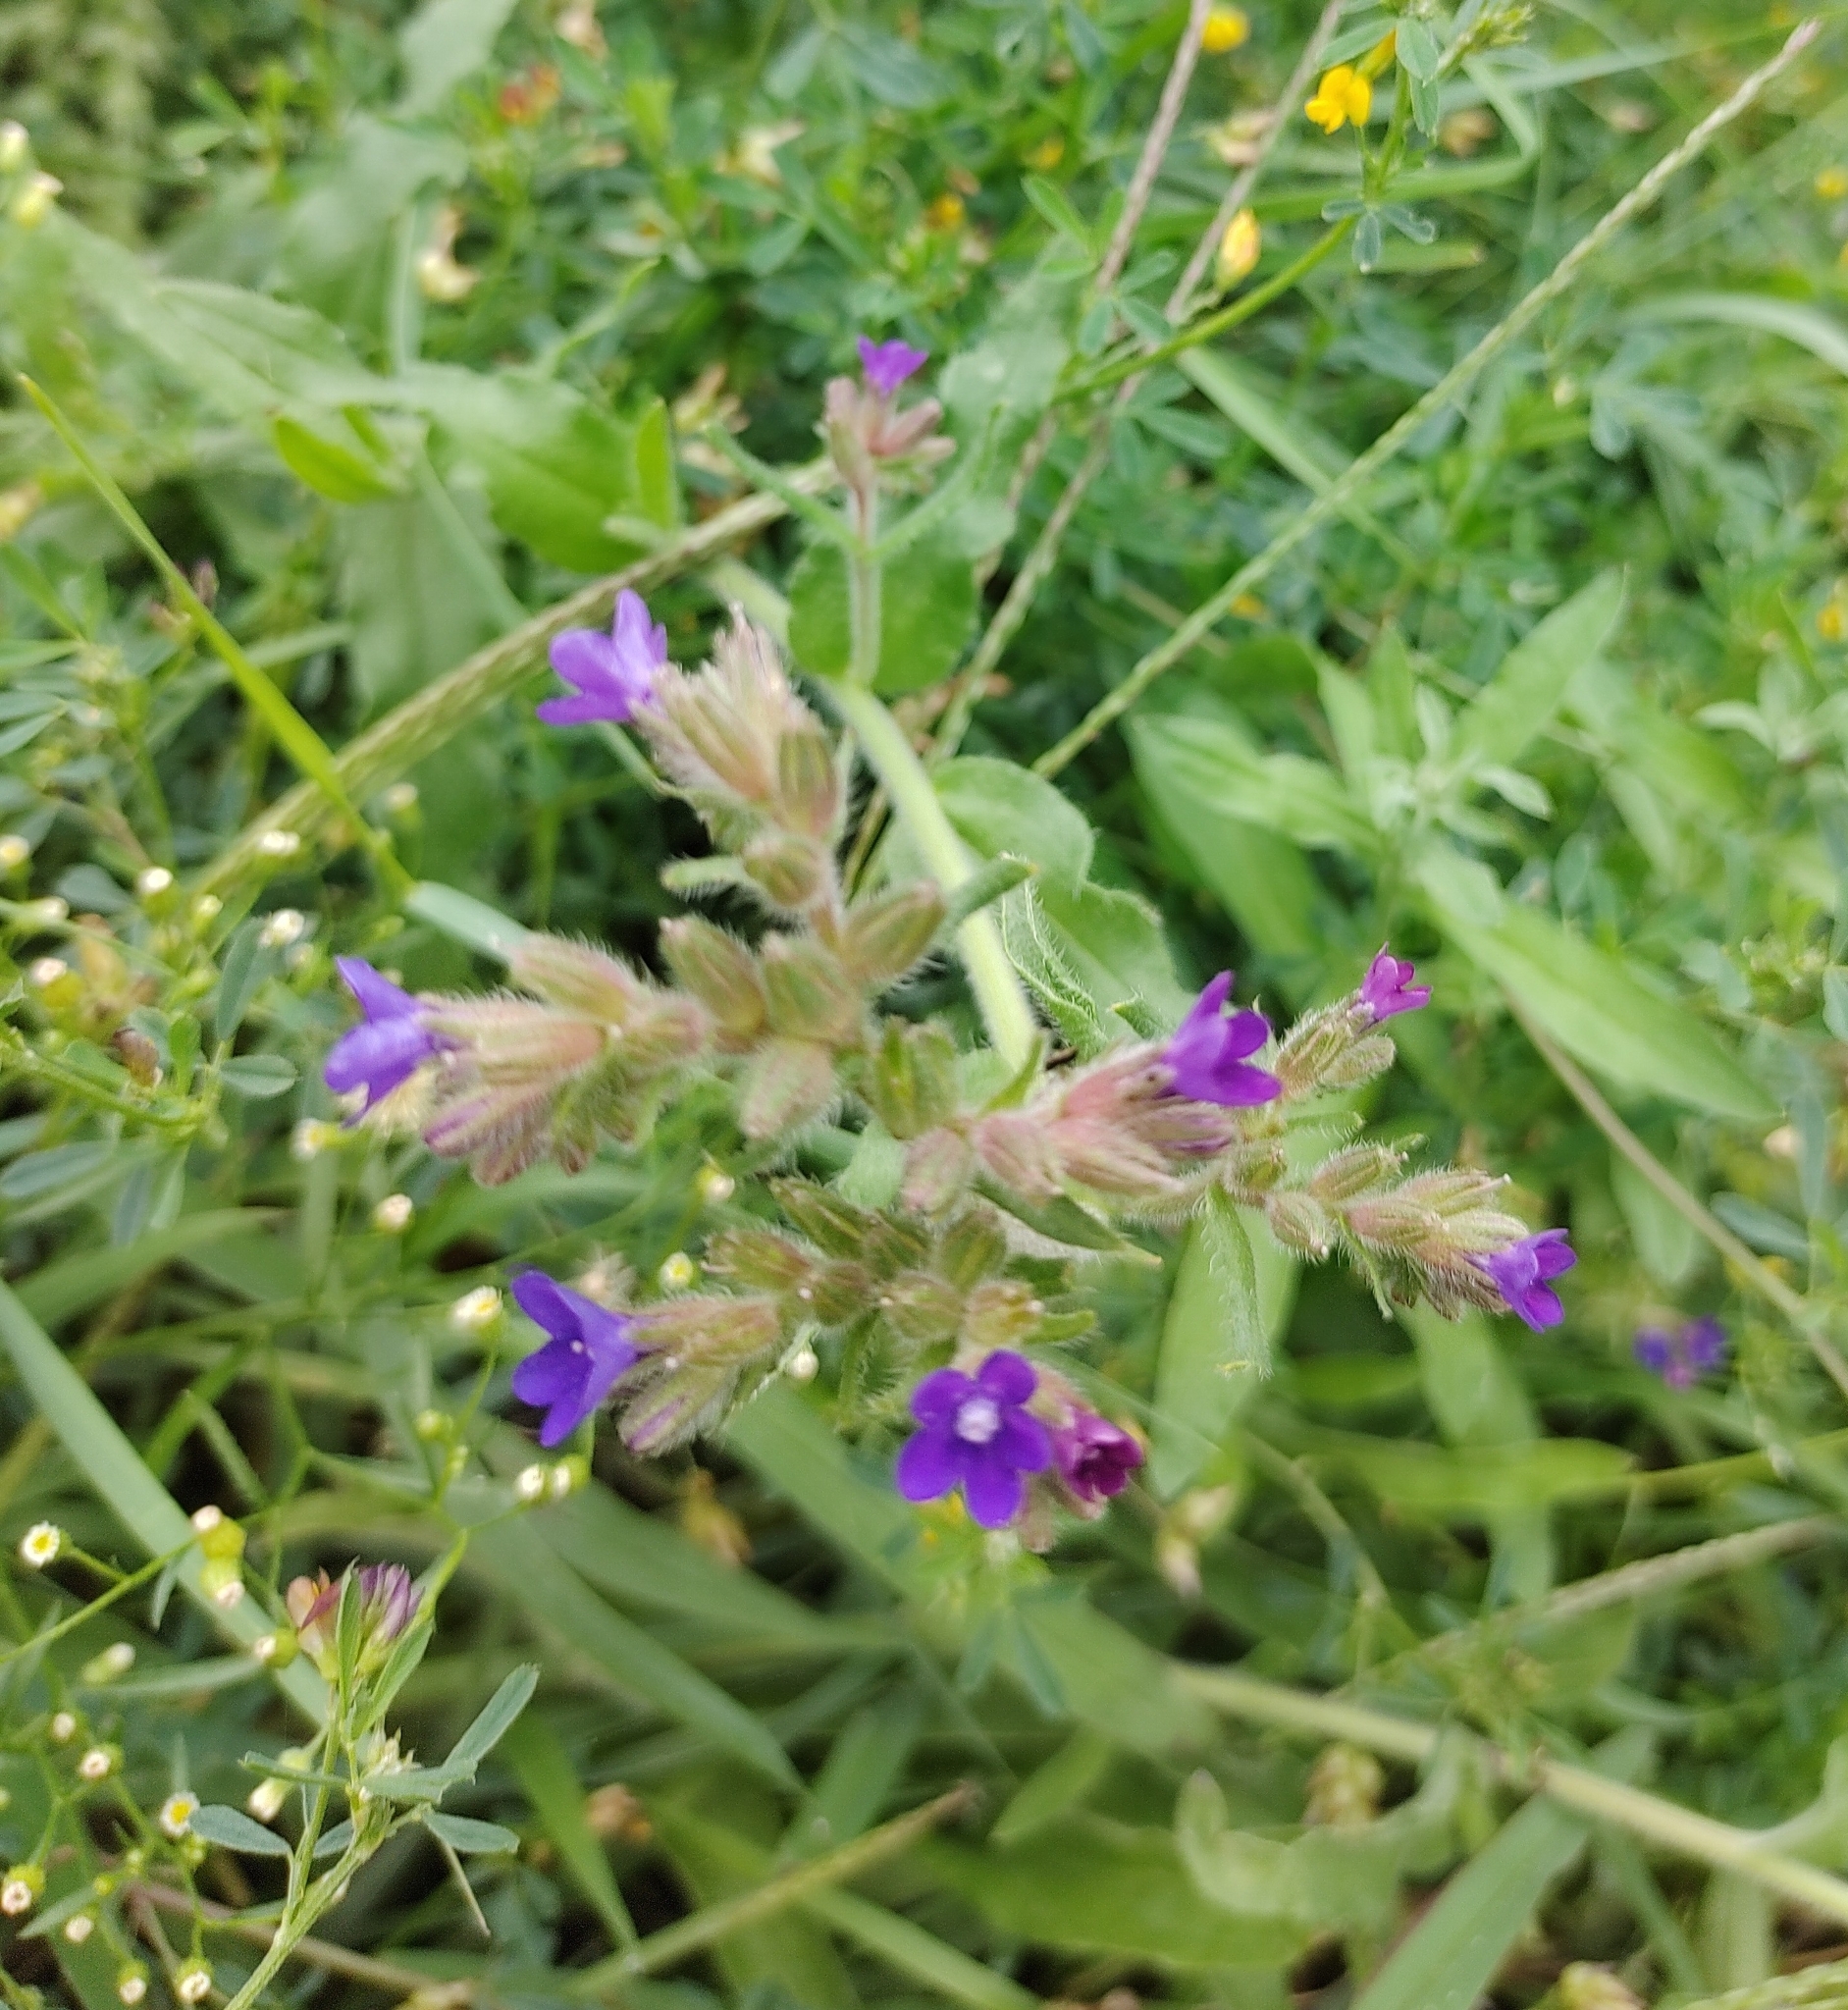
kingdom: Plantae
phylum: Tracheophyta
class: Magnoliopsida
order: Boraginales
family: Boraginaceae
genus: Anchusa
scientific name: Anchusa officinalis
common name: Alkanet
